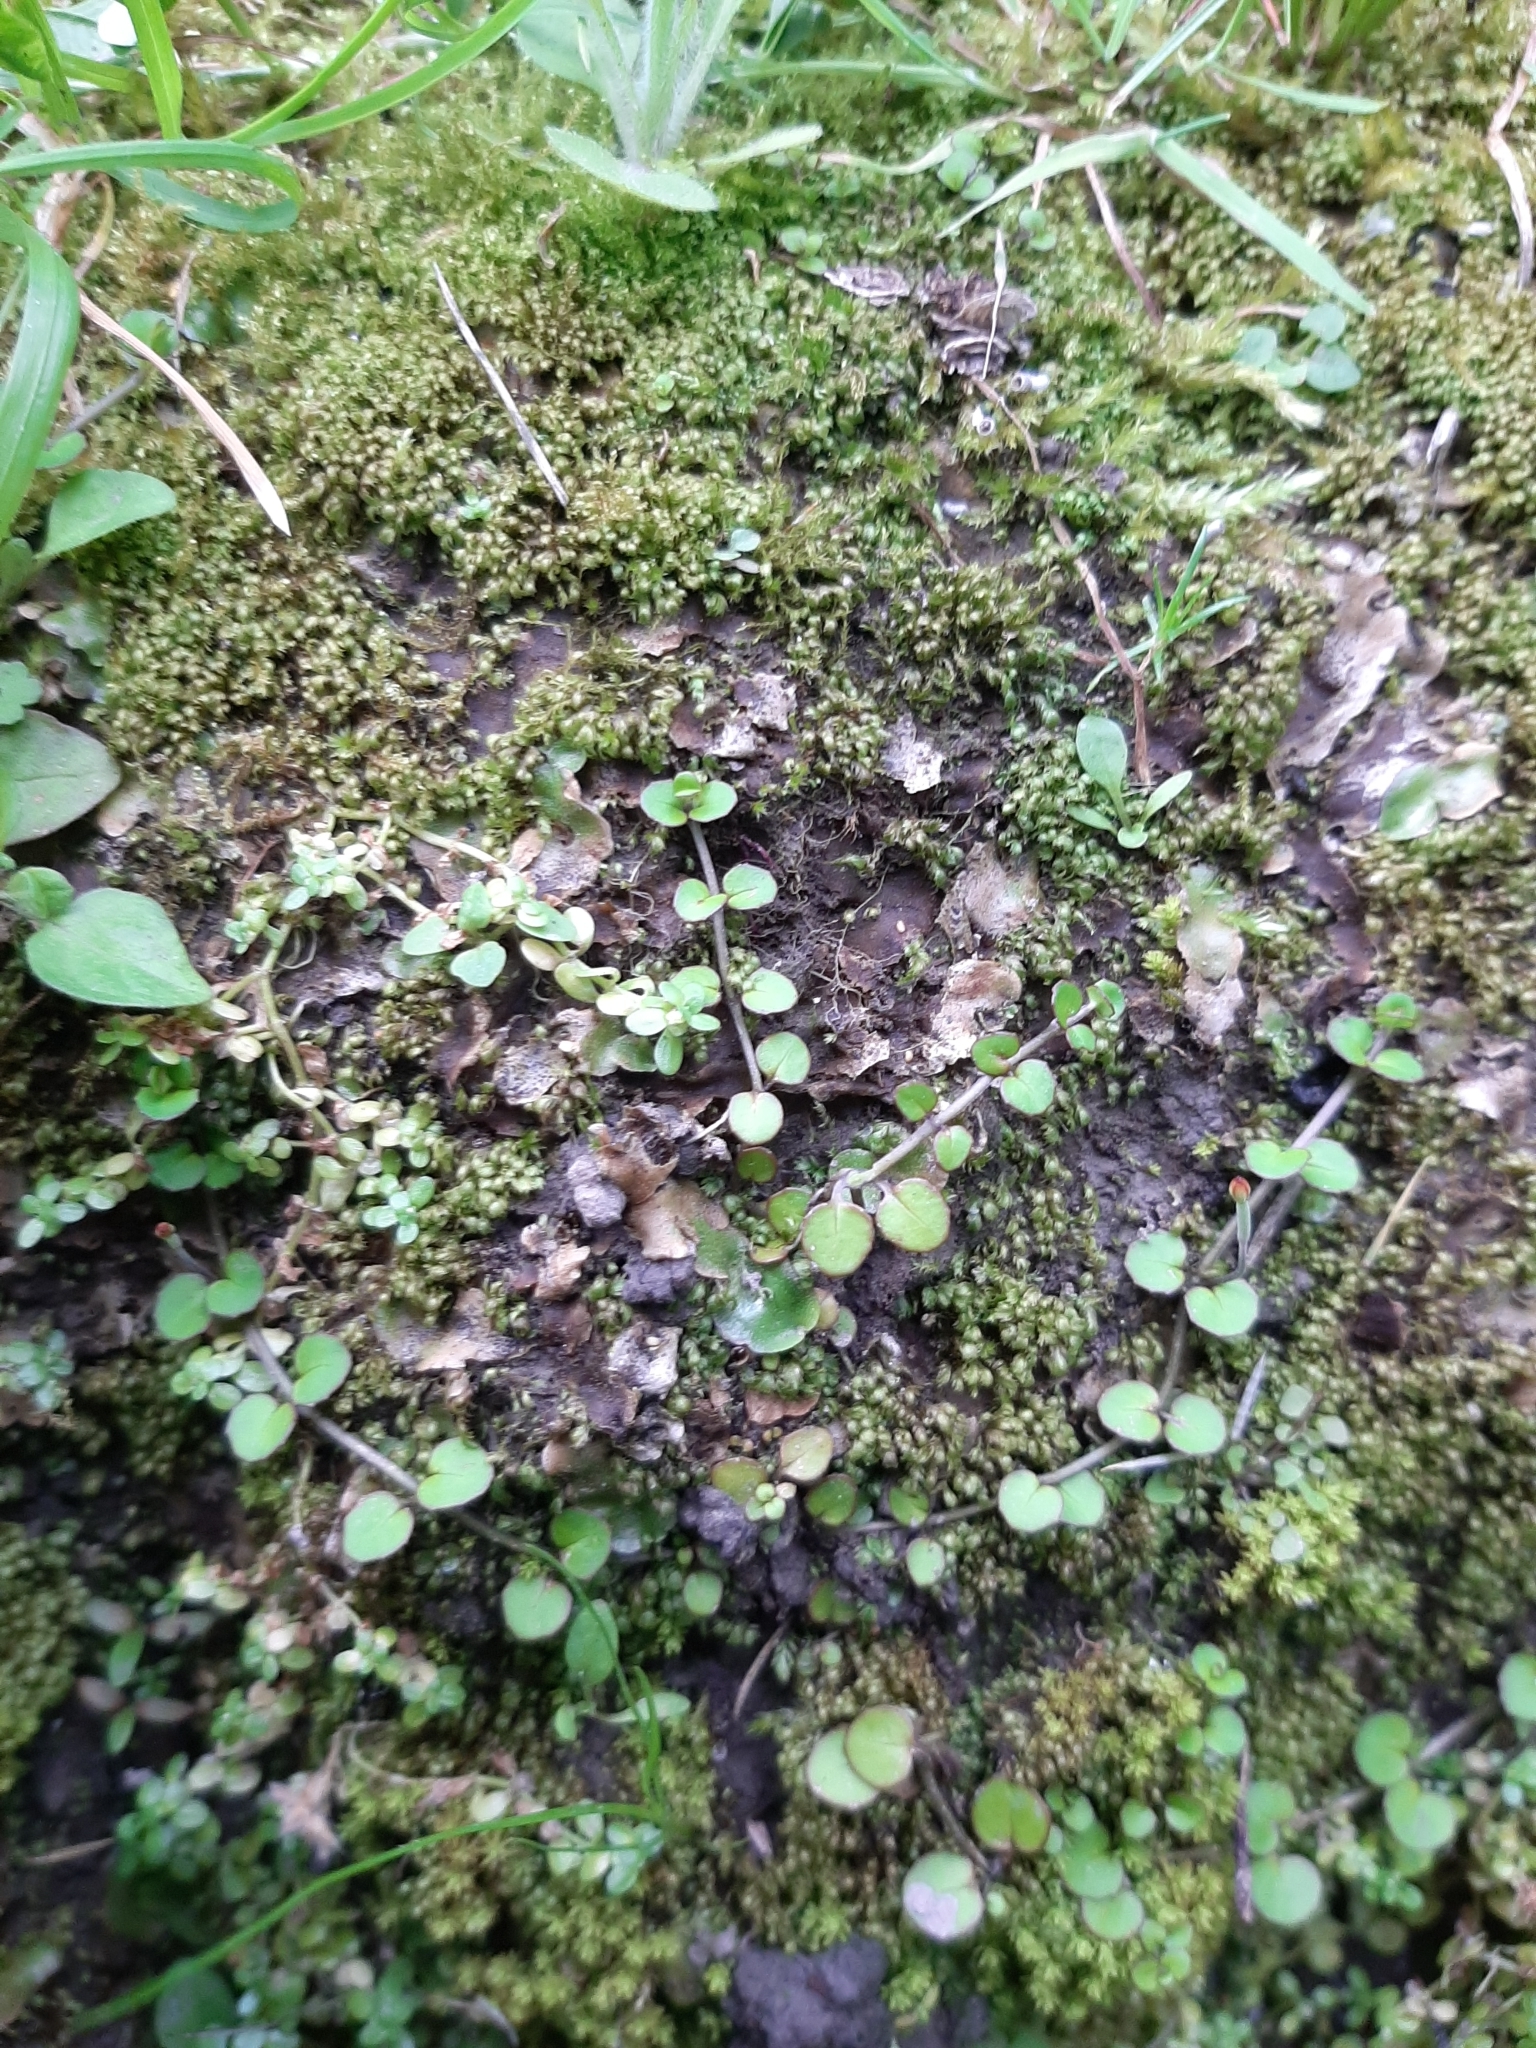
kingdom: Plantae
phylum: Tracheophyta
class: Magnoliopsida
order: Myrtales
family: Onagraceae
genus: Epilobium
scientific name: Epilobium nummularifolium
